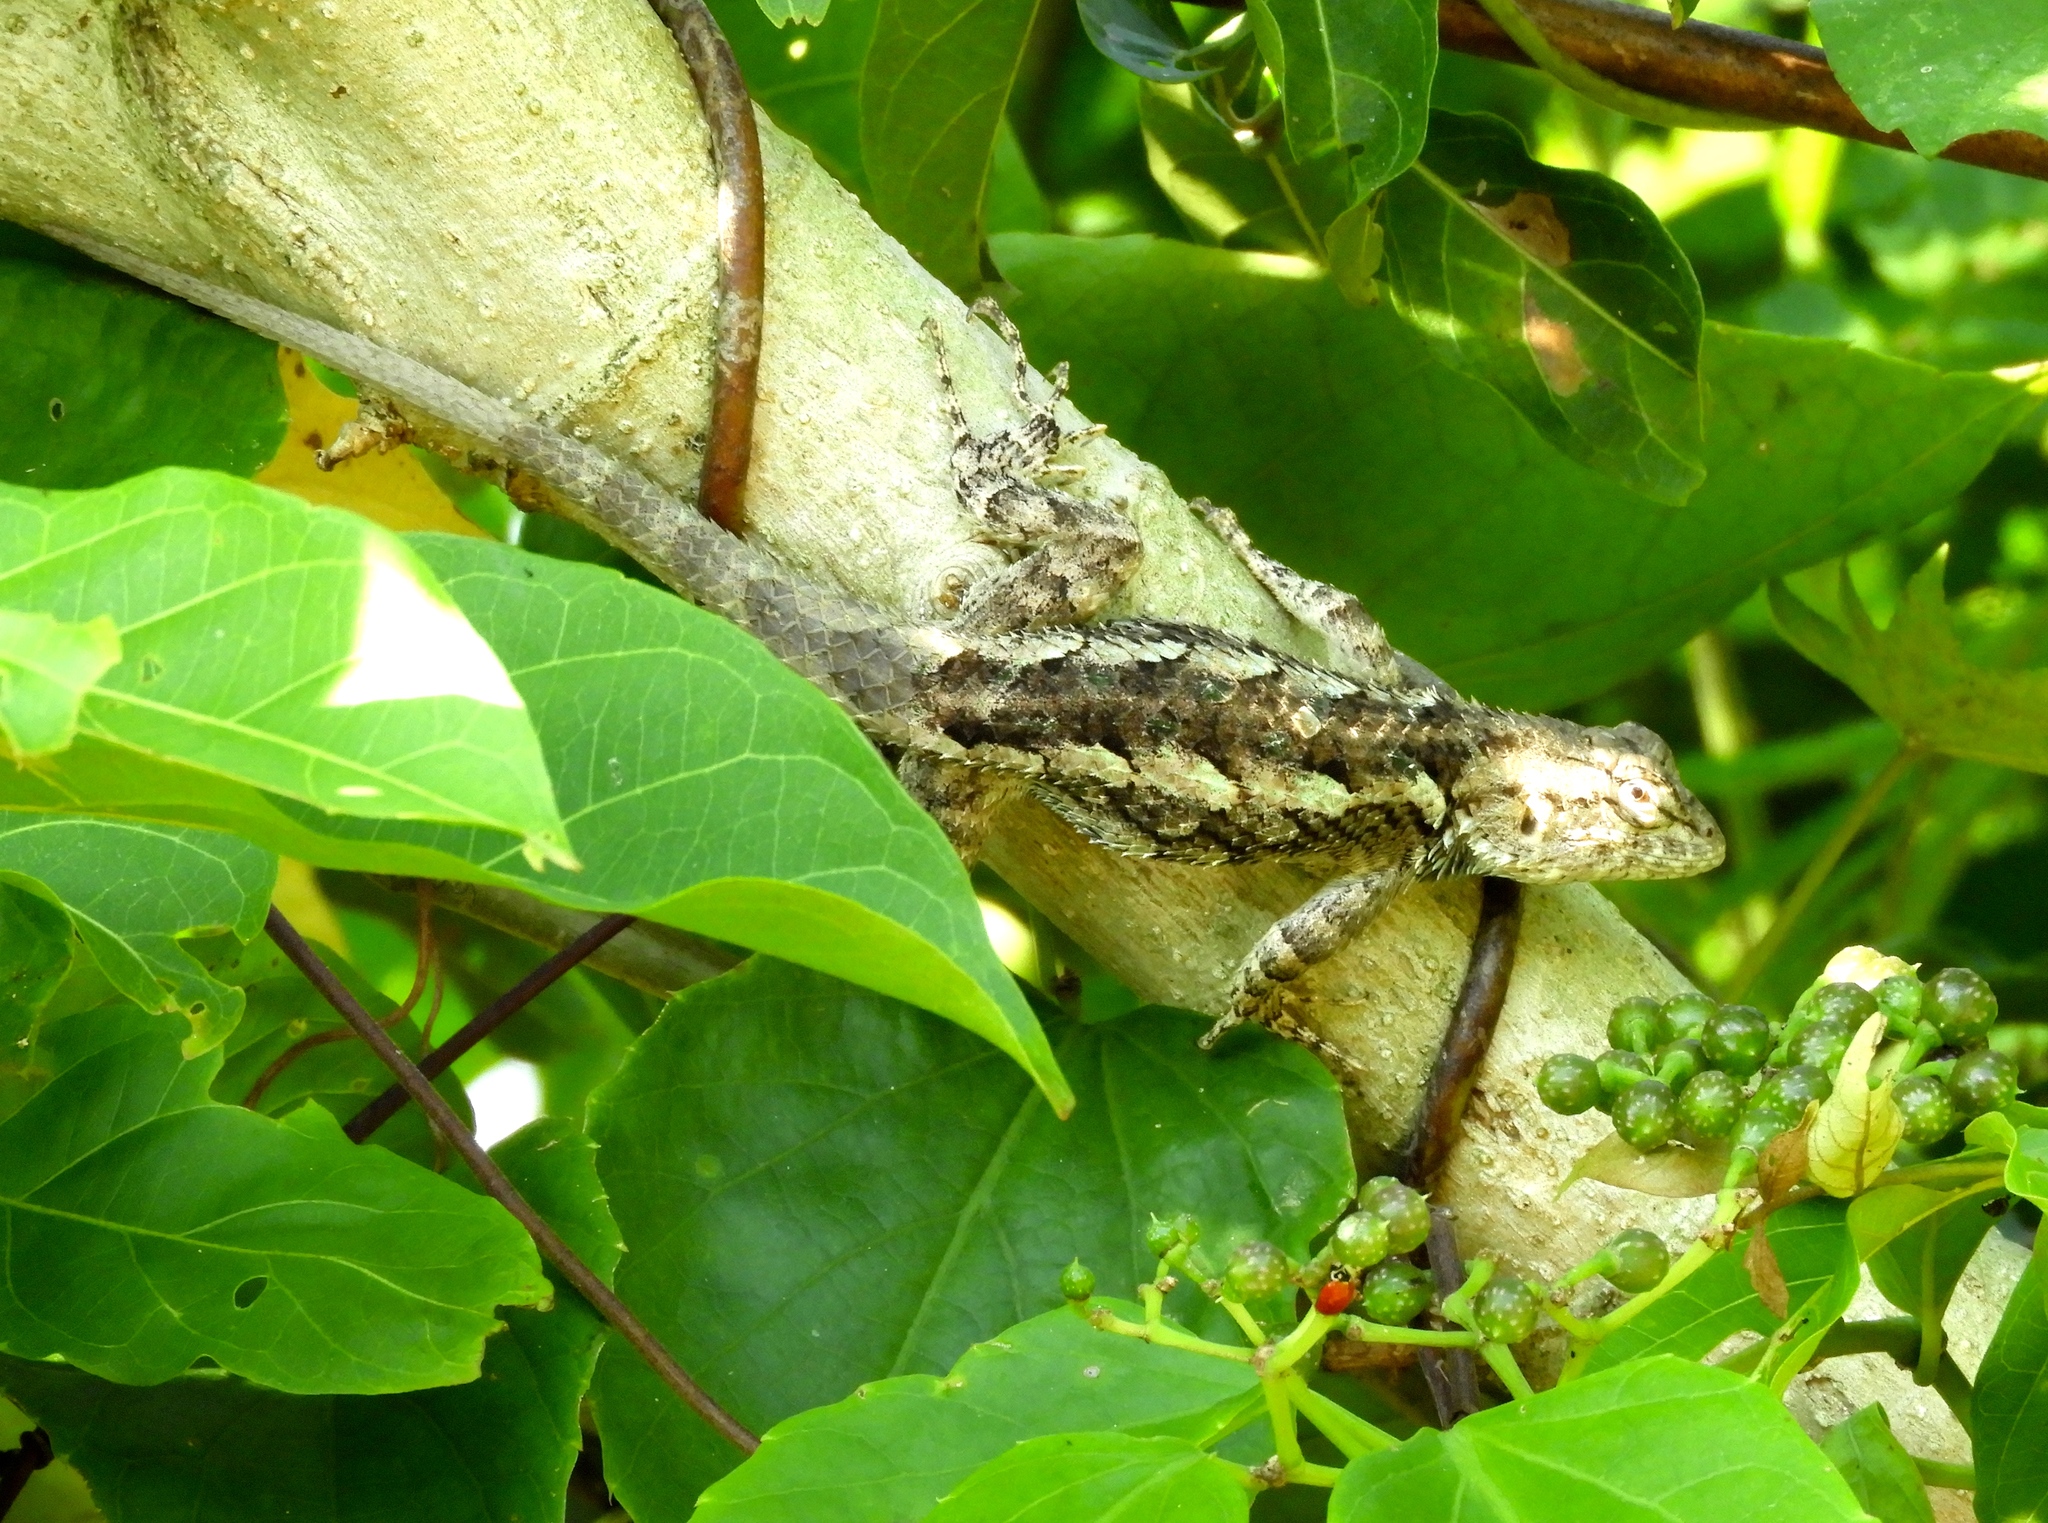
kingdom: Animalia
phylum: Chordata
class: Squamata
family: Phrynosomatidae
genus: Sceloporus
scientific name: Sceloporus clarkii
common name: Clark's spiny lizard
